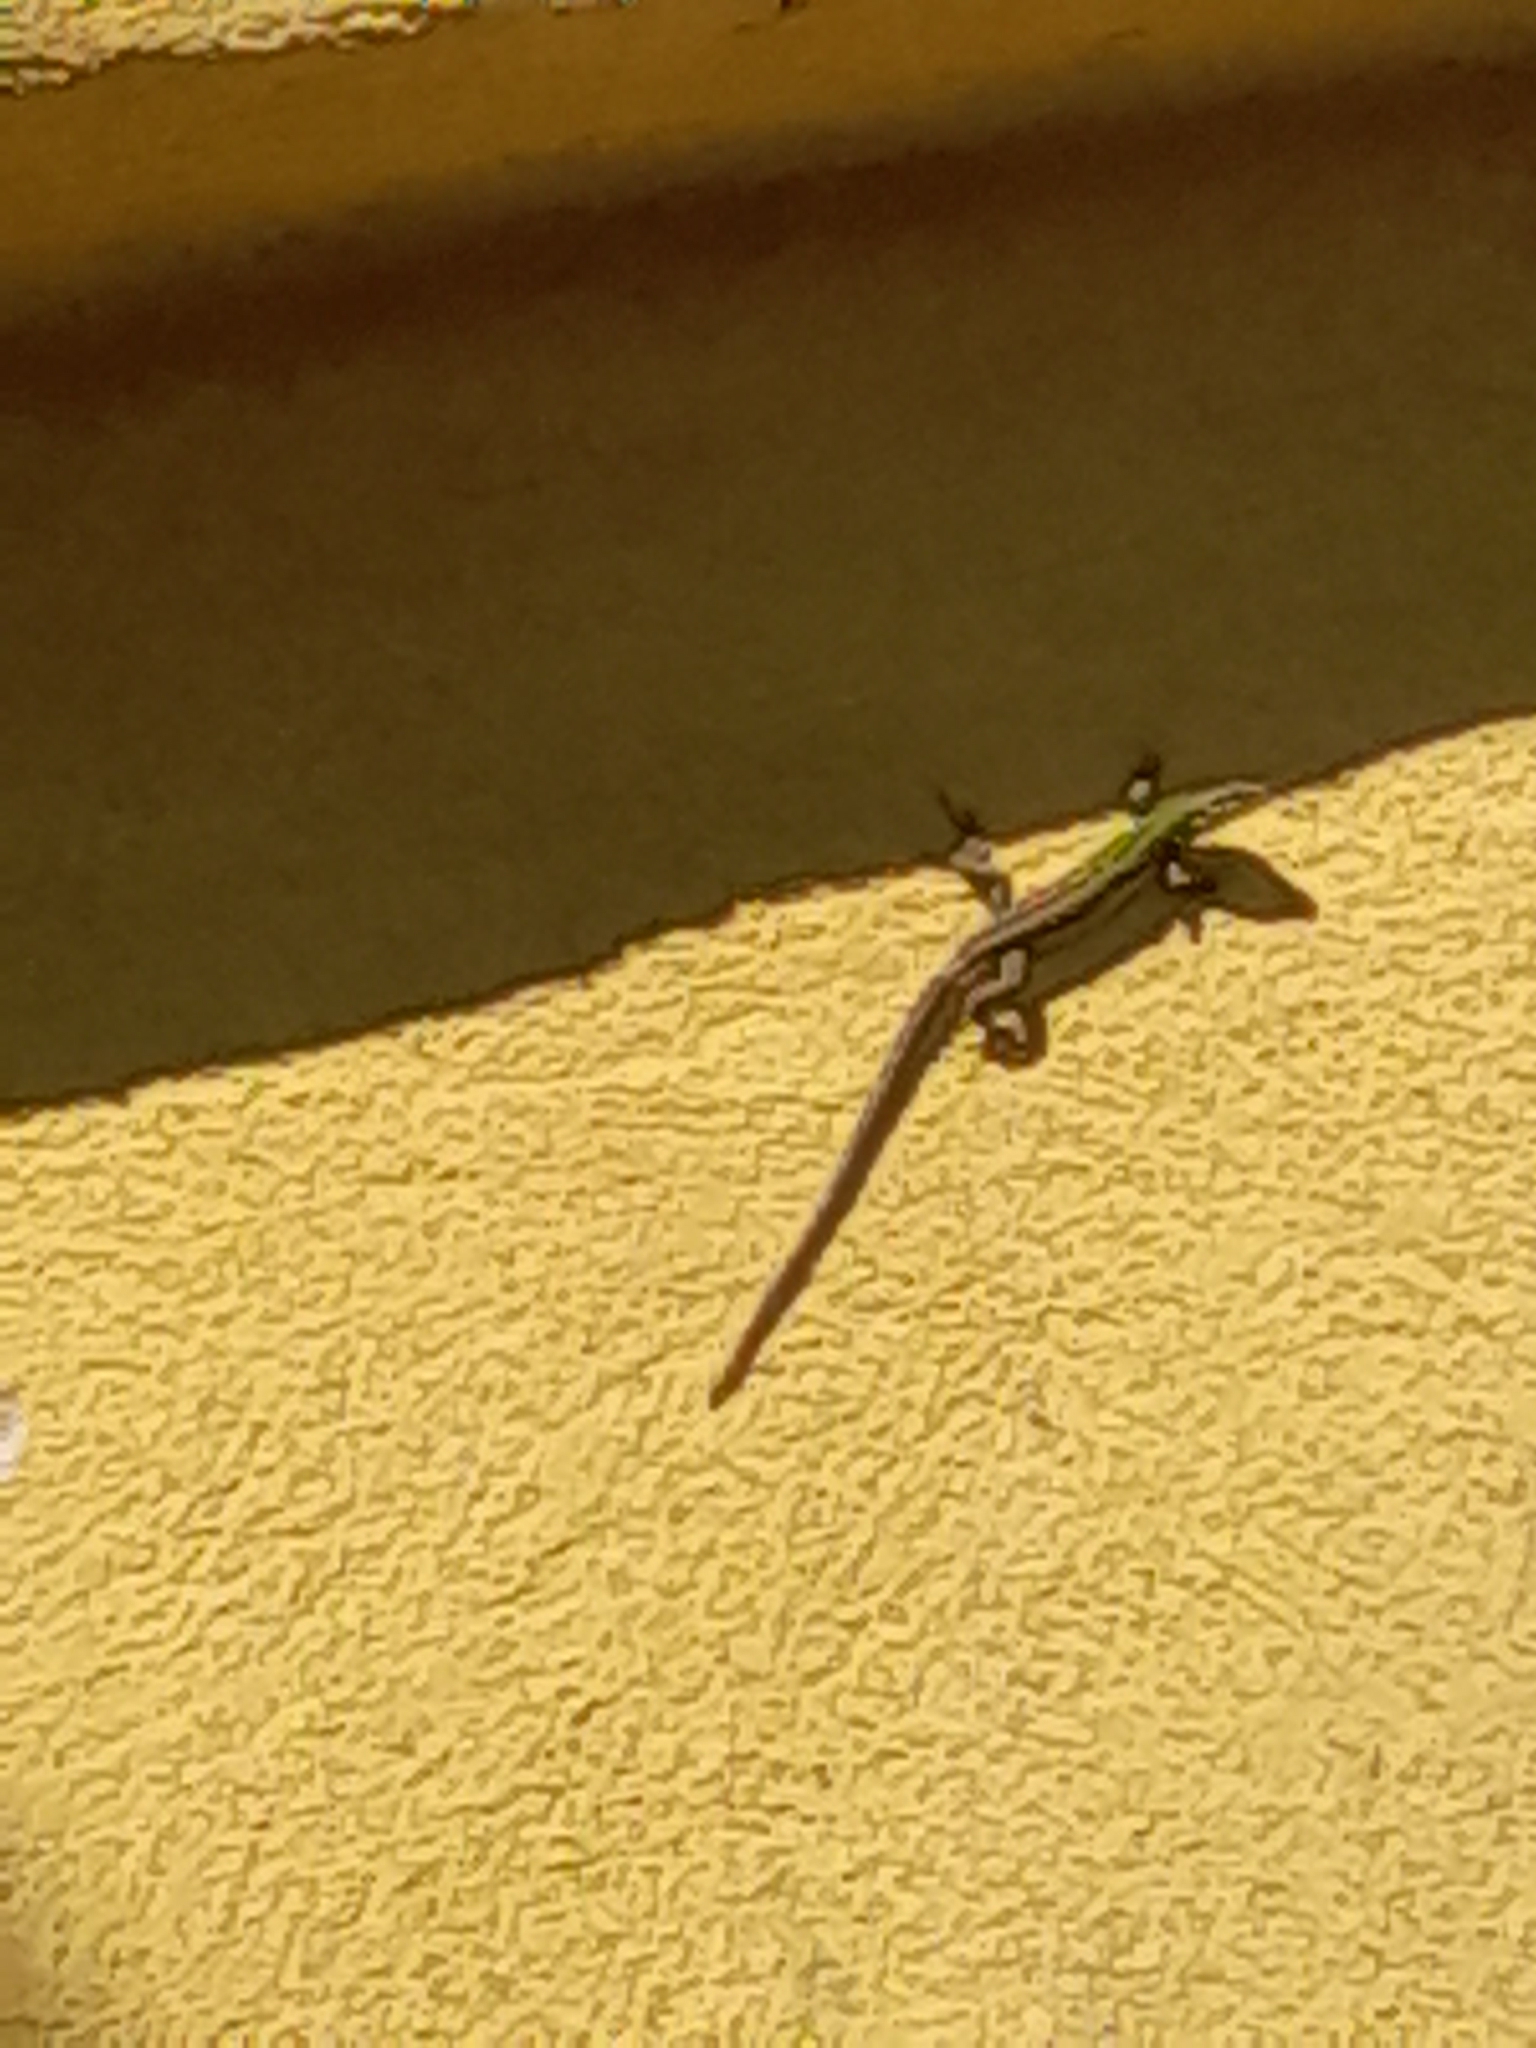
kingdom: Animalia
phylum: Chordata
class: Squamata
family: Lacertidae
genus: Podarcis
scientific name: Podarcis siculus
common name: Italian wall lizard
